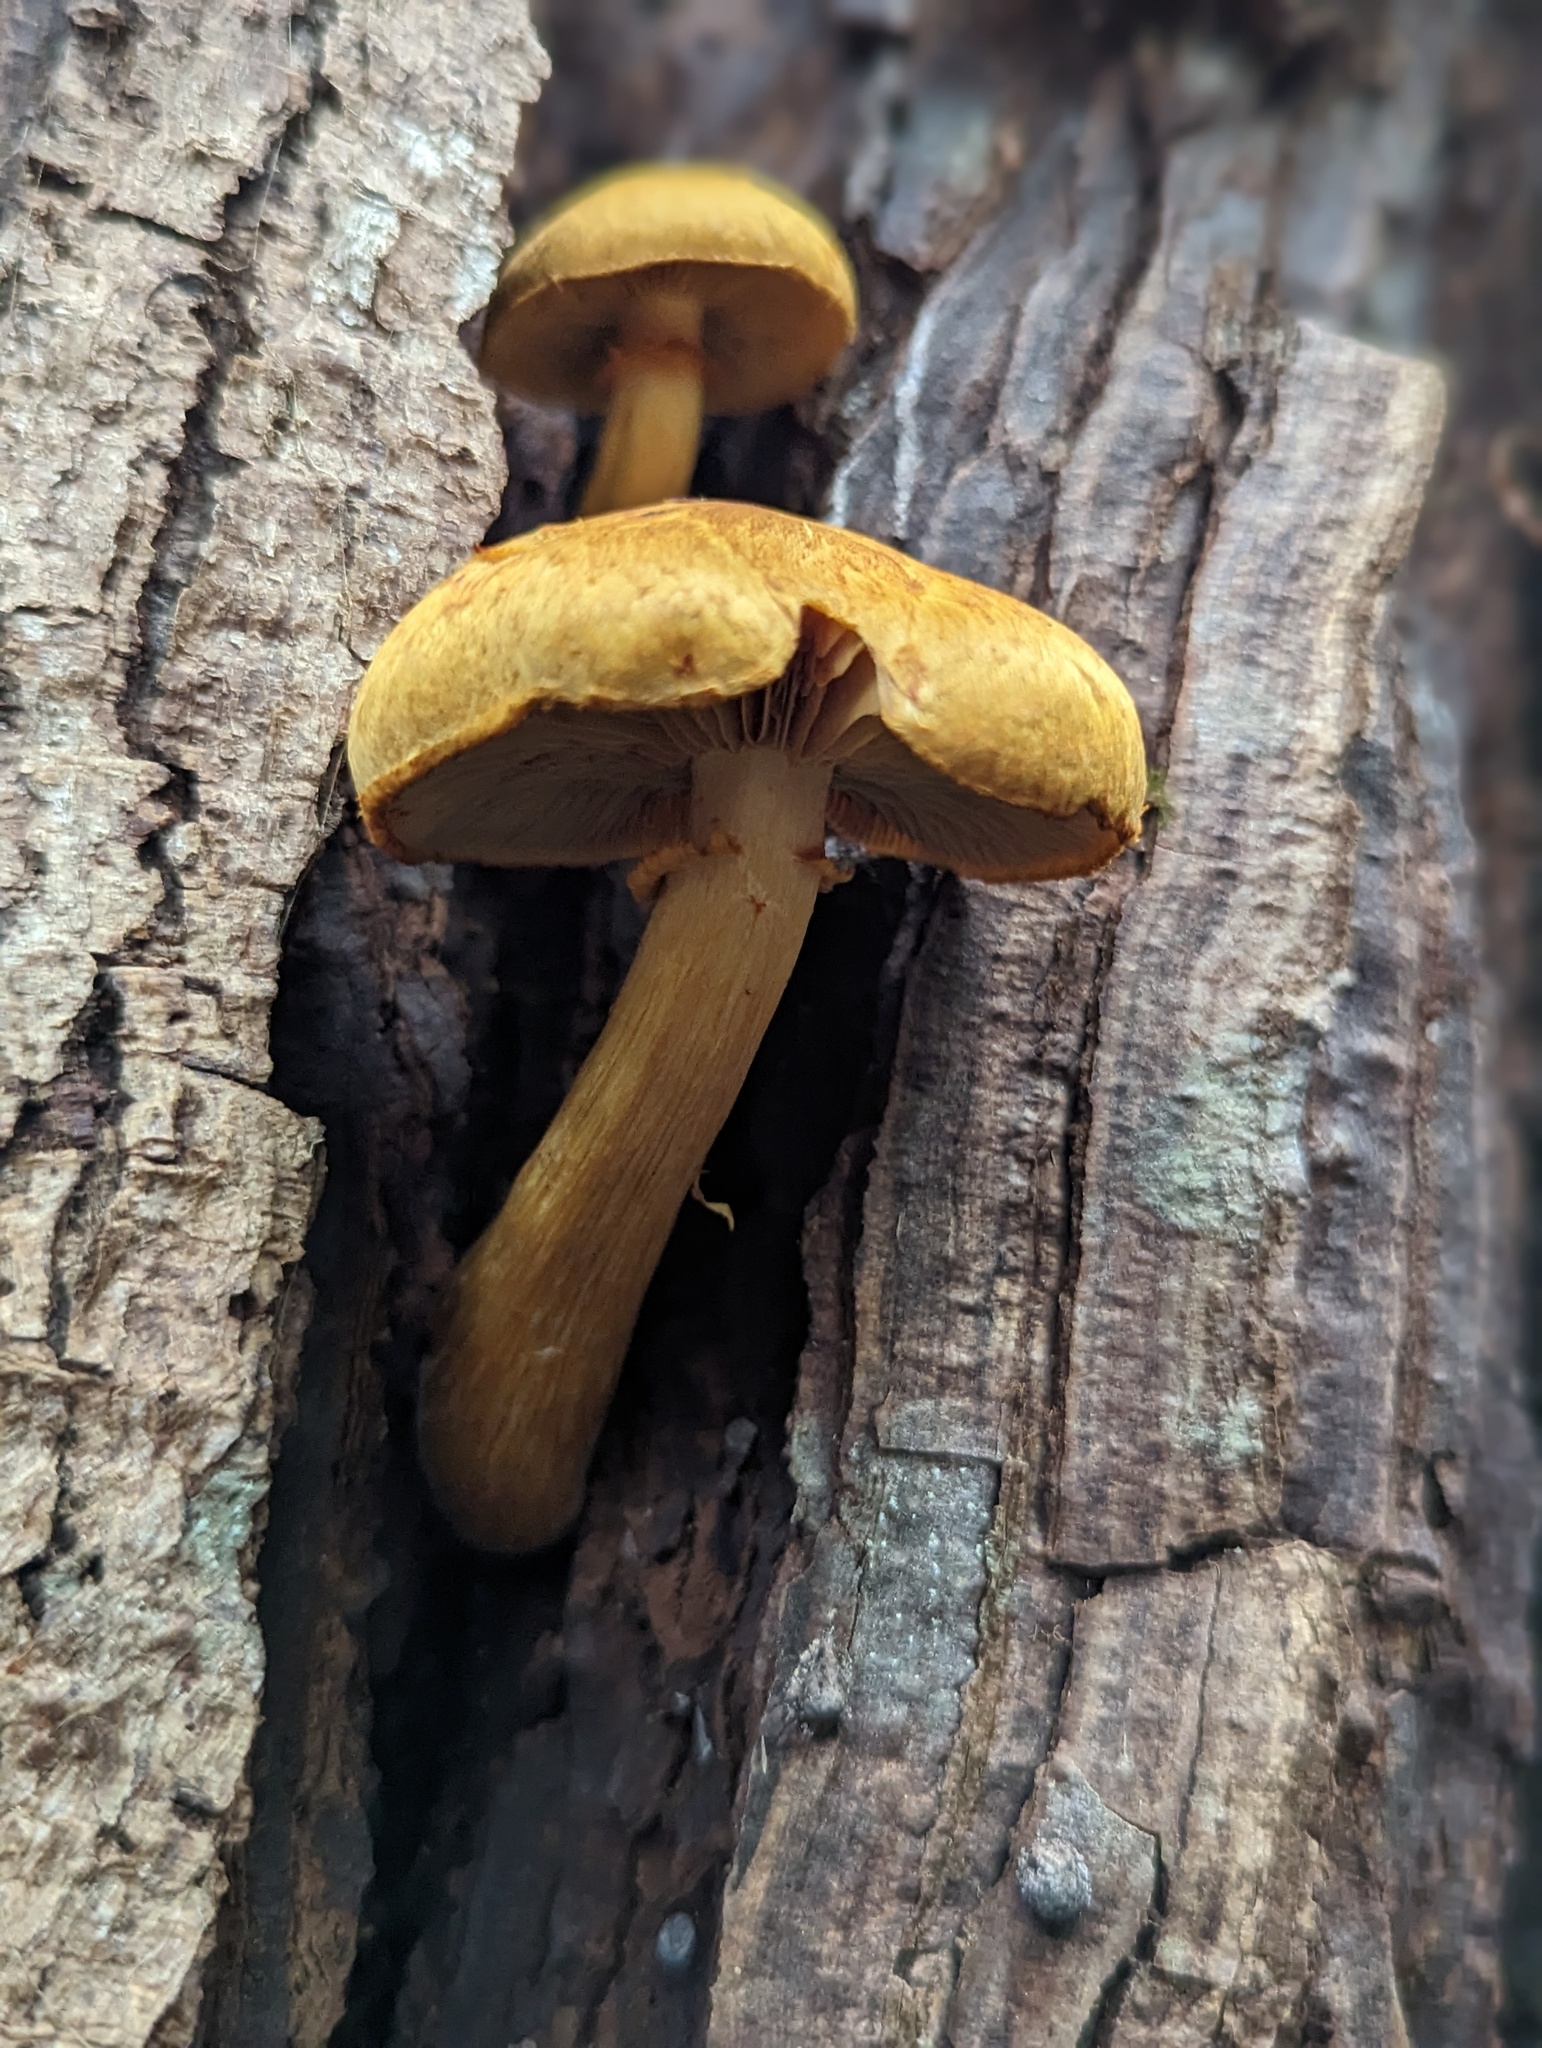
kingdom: Fungi
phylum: Basidiomycota
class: Agaricomycetes
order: Agaricales
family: Hymenogastraceae
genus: Gymnopilus
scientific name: Gymnopilus junonius
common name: Spectacular rustgill
